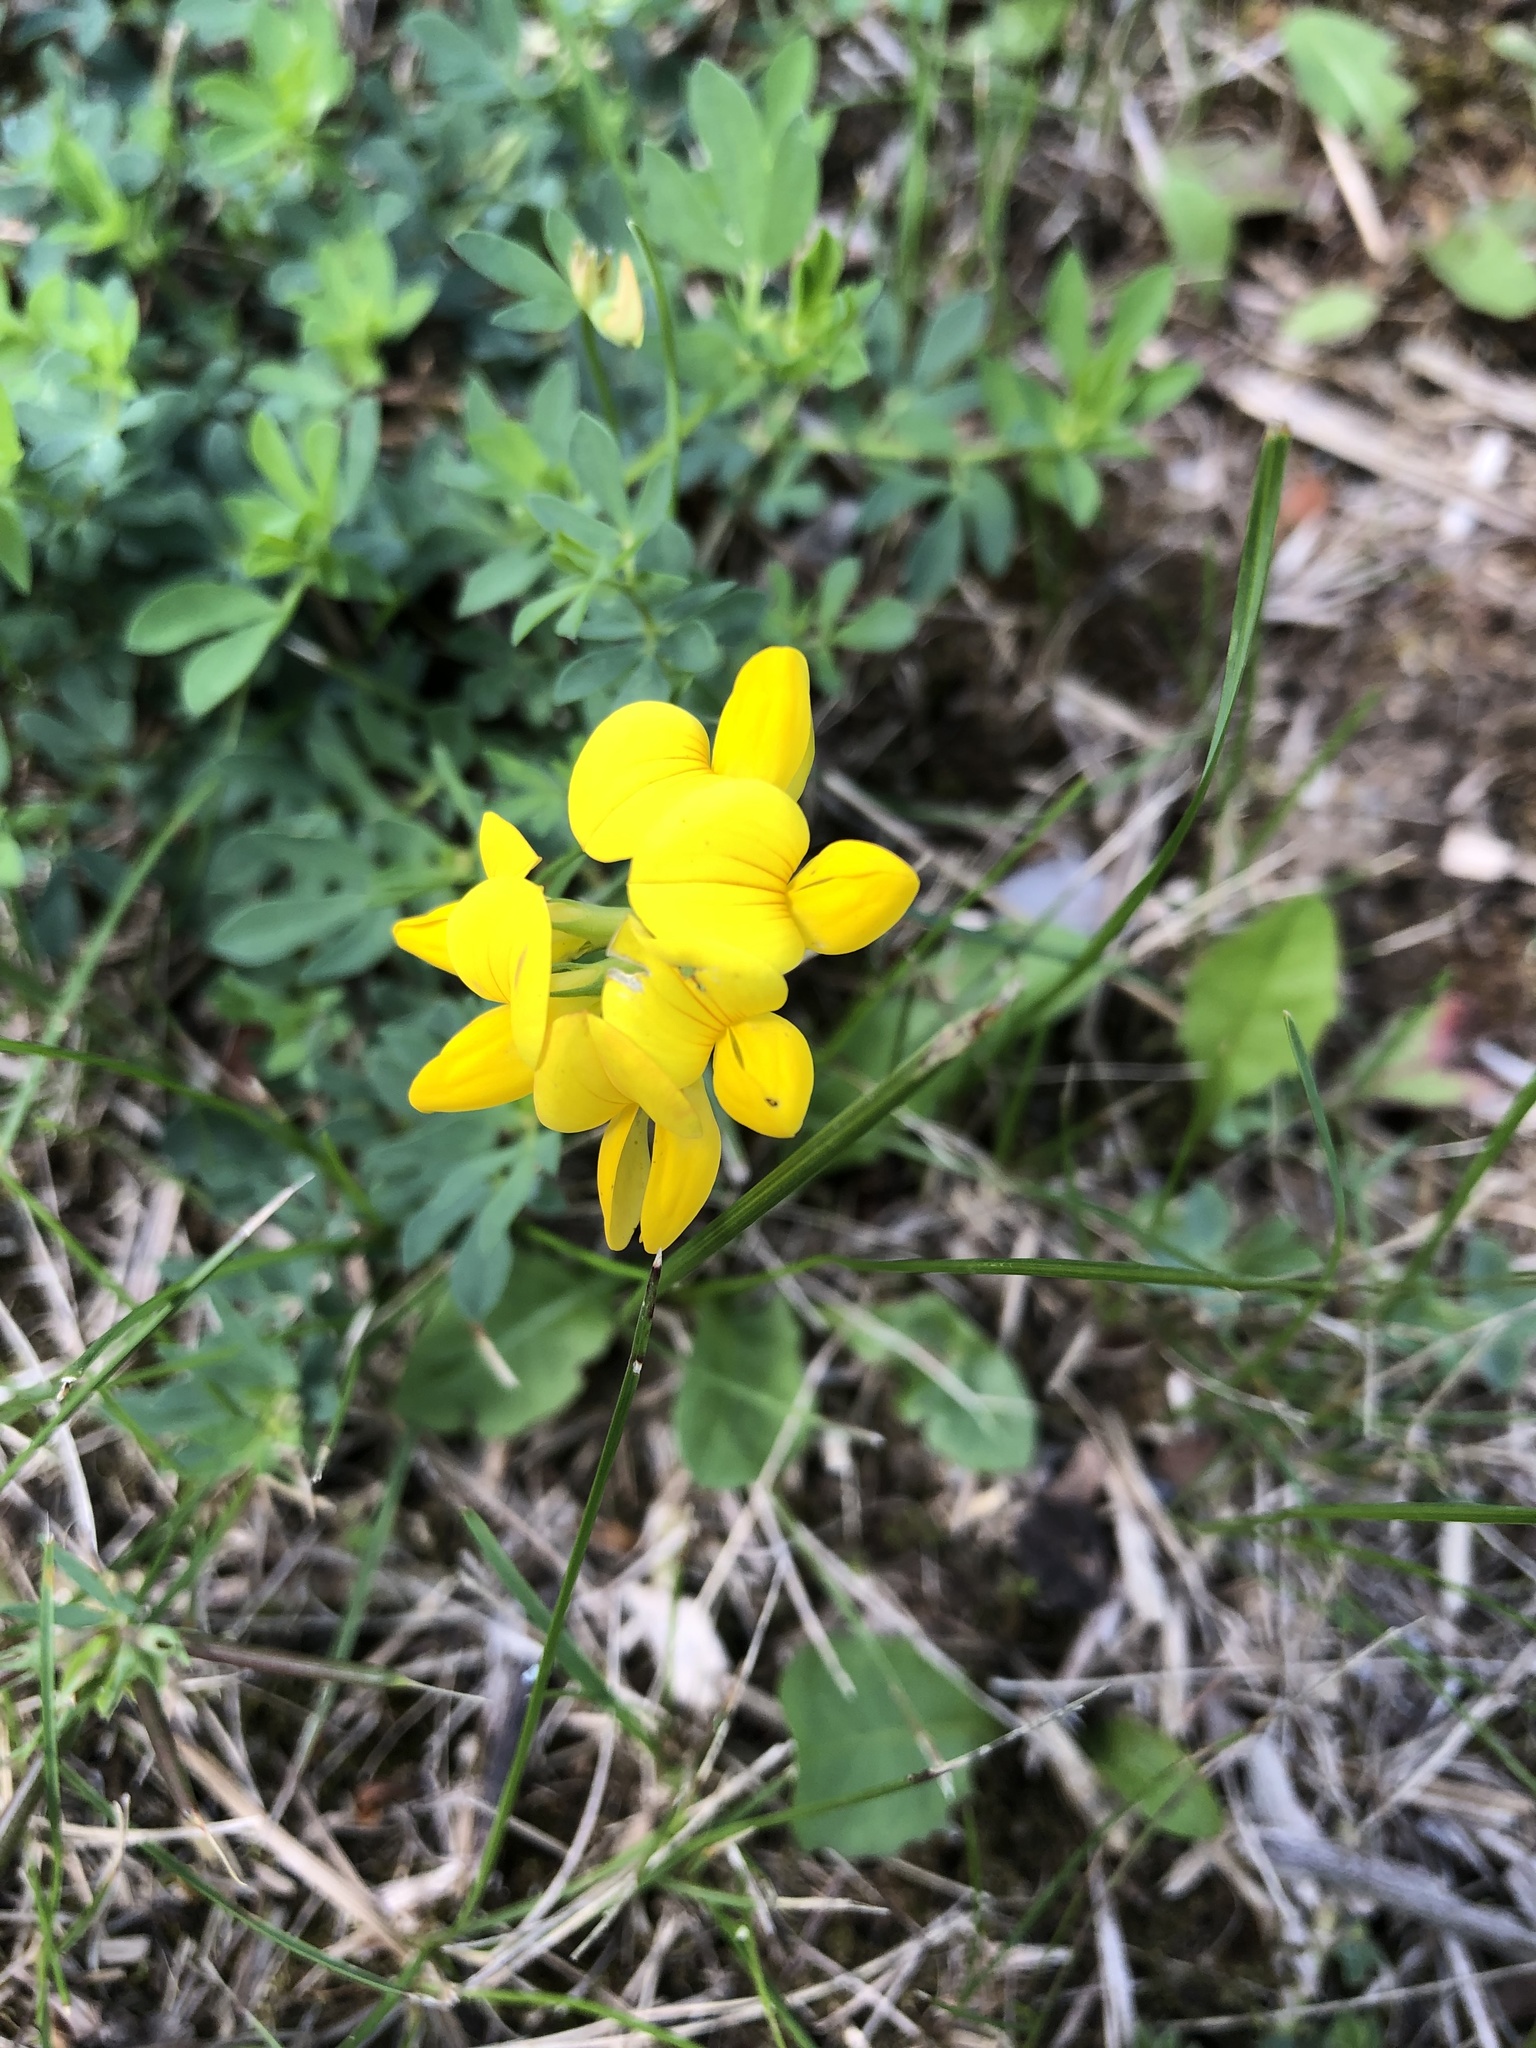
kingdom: Plantae
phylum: Tracheophyta
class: Magnoliopsida
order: Fabales
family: Fabaceae
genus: Lotus
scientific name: Lotus corniculatus
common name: Common bird's-foot-trefoil
